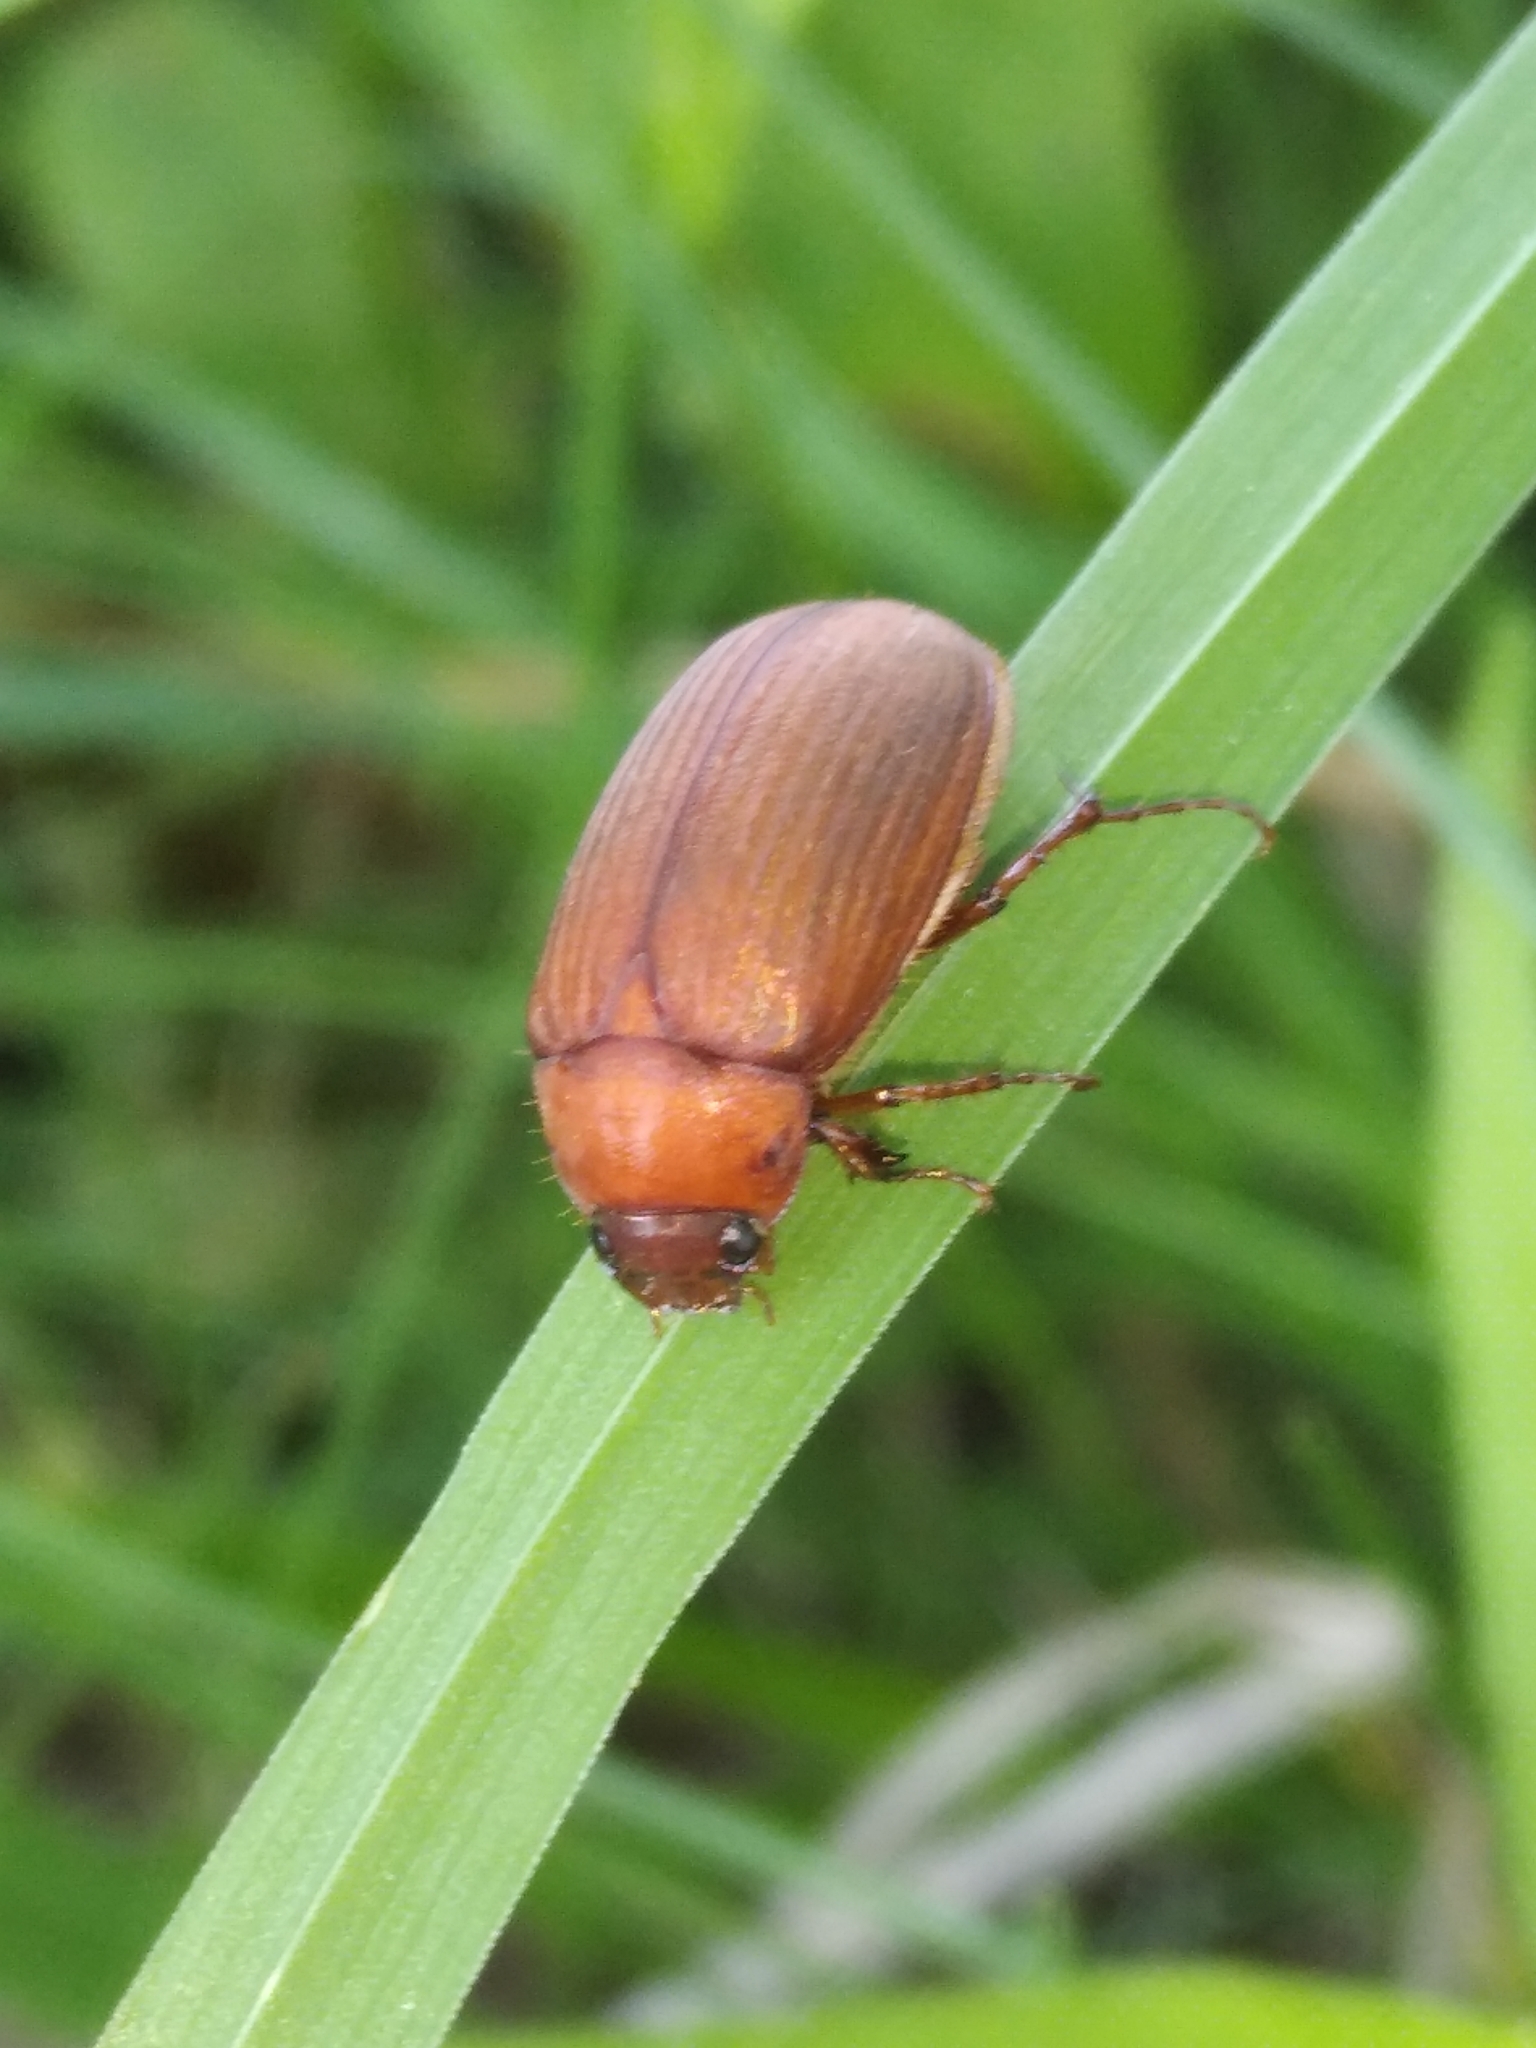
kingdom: Animalia
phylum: Arthropoda
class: Insecta
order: Coleoptera
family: Scarabaeidae
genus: Serica
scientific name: Serica brunnea
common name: Brown chafer
